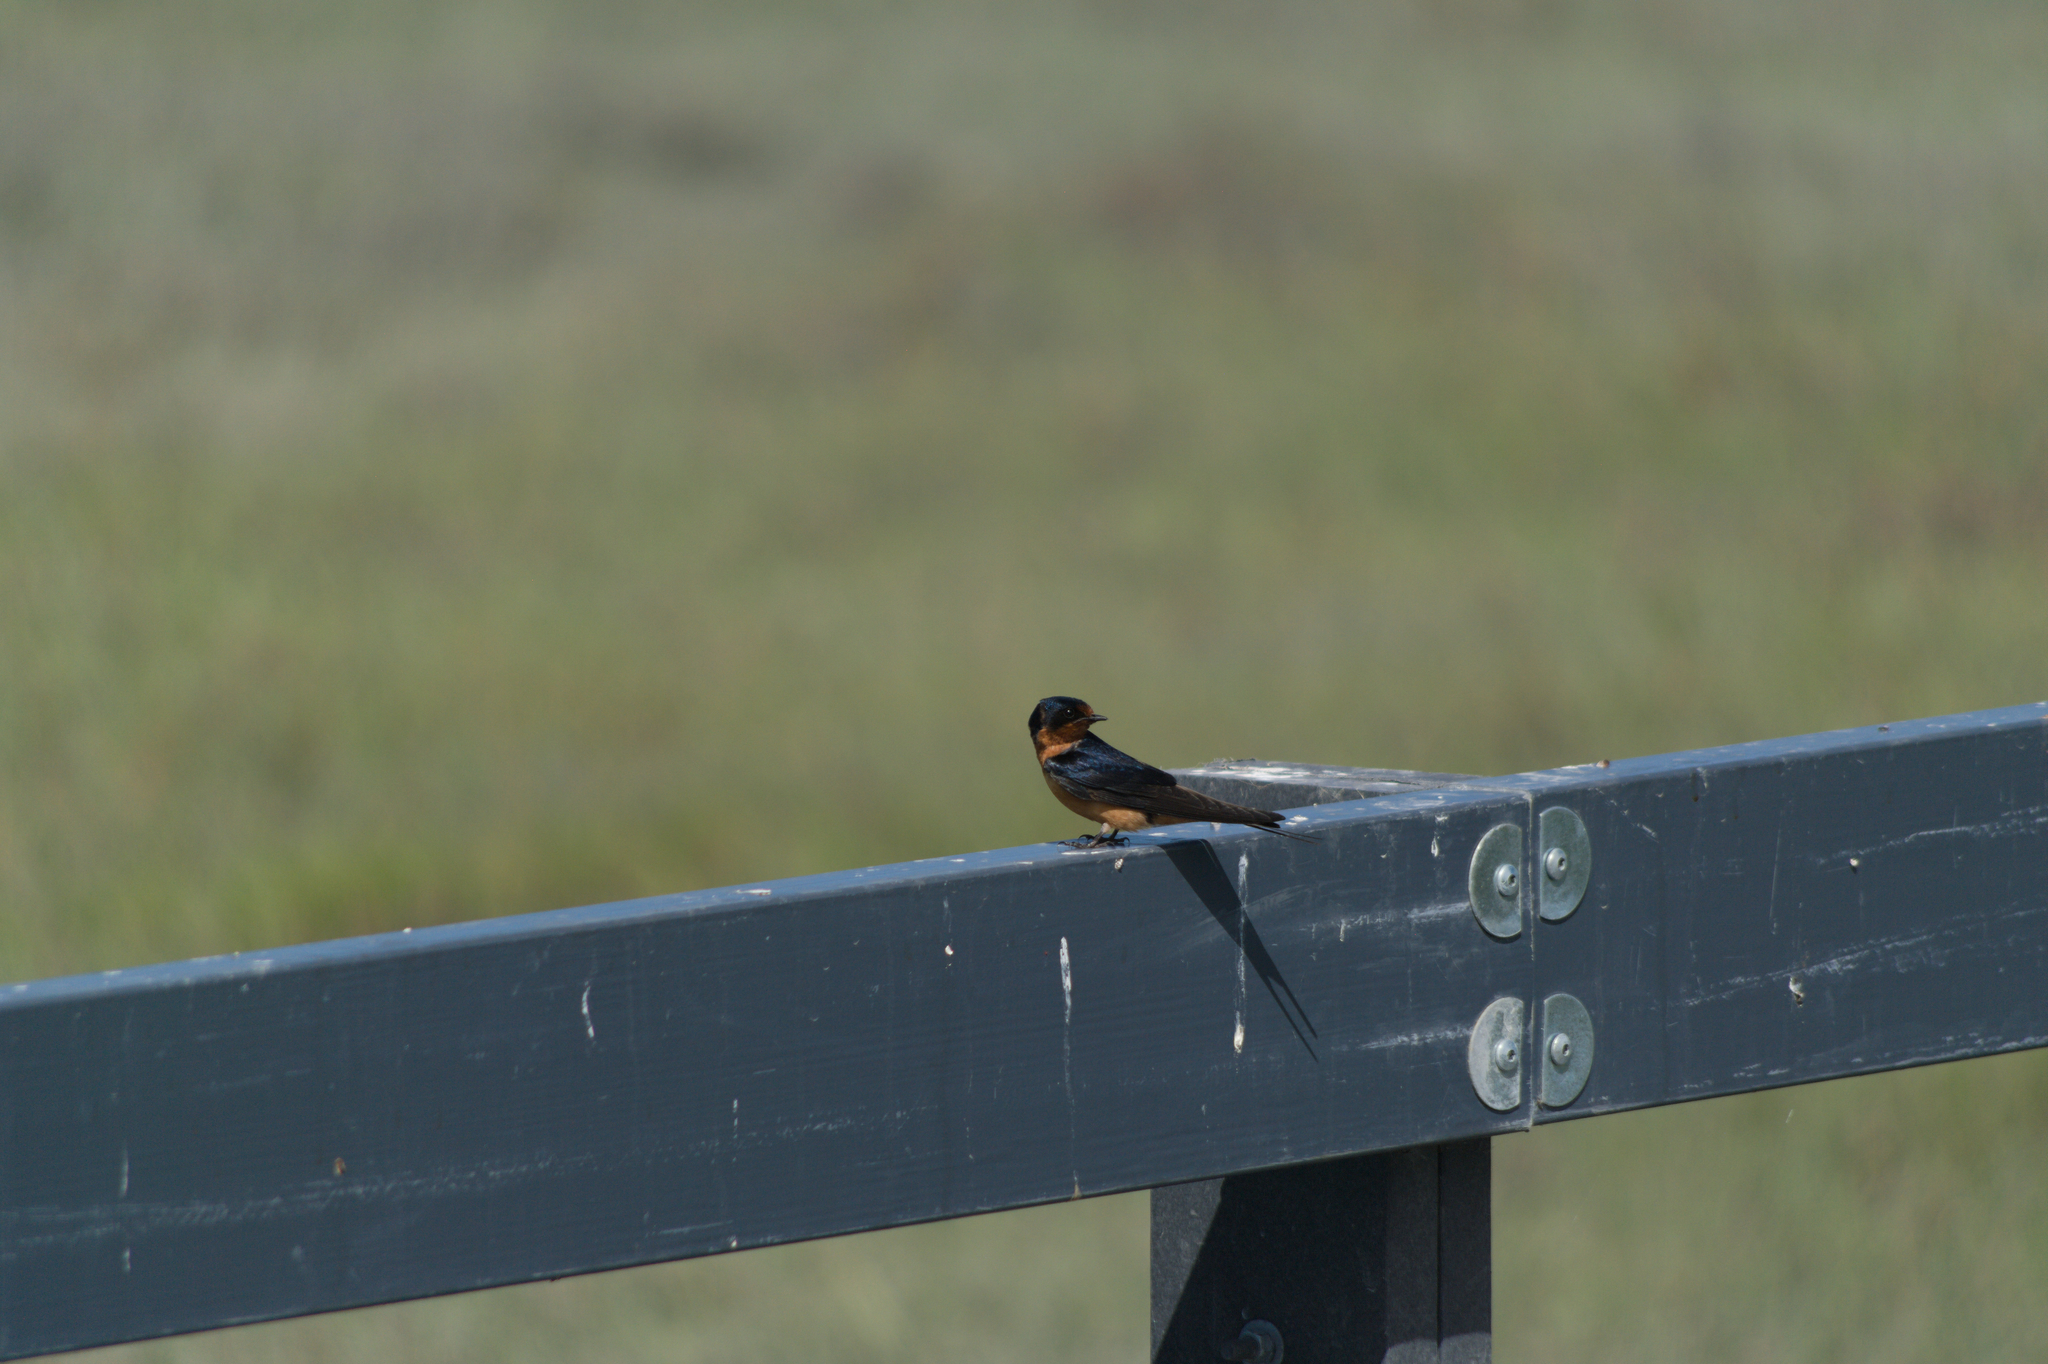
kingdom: Animalia
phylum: Chordata
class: Aves
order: Passeriformes
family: Hirundinidae
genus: Hirundo
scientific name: Hirundo rustica
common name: Barn swallow
